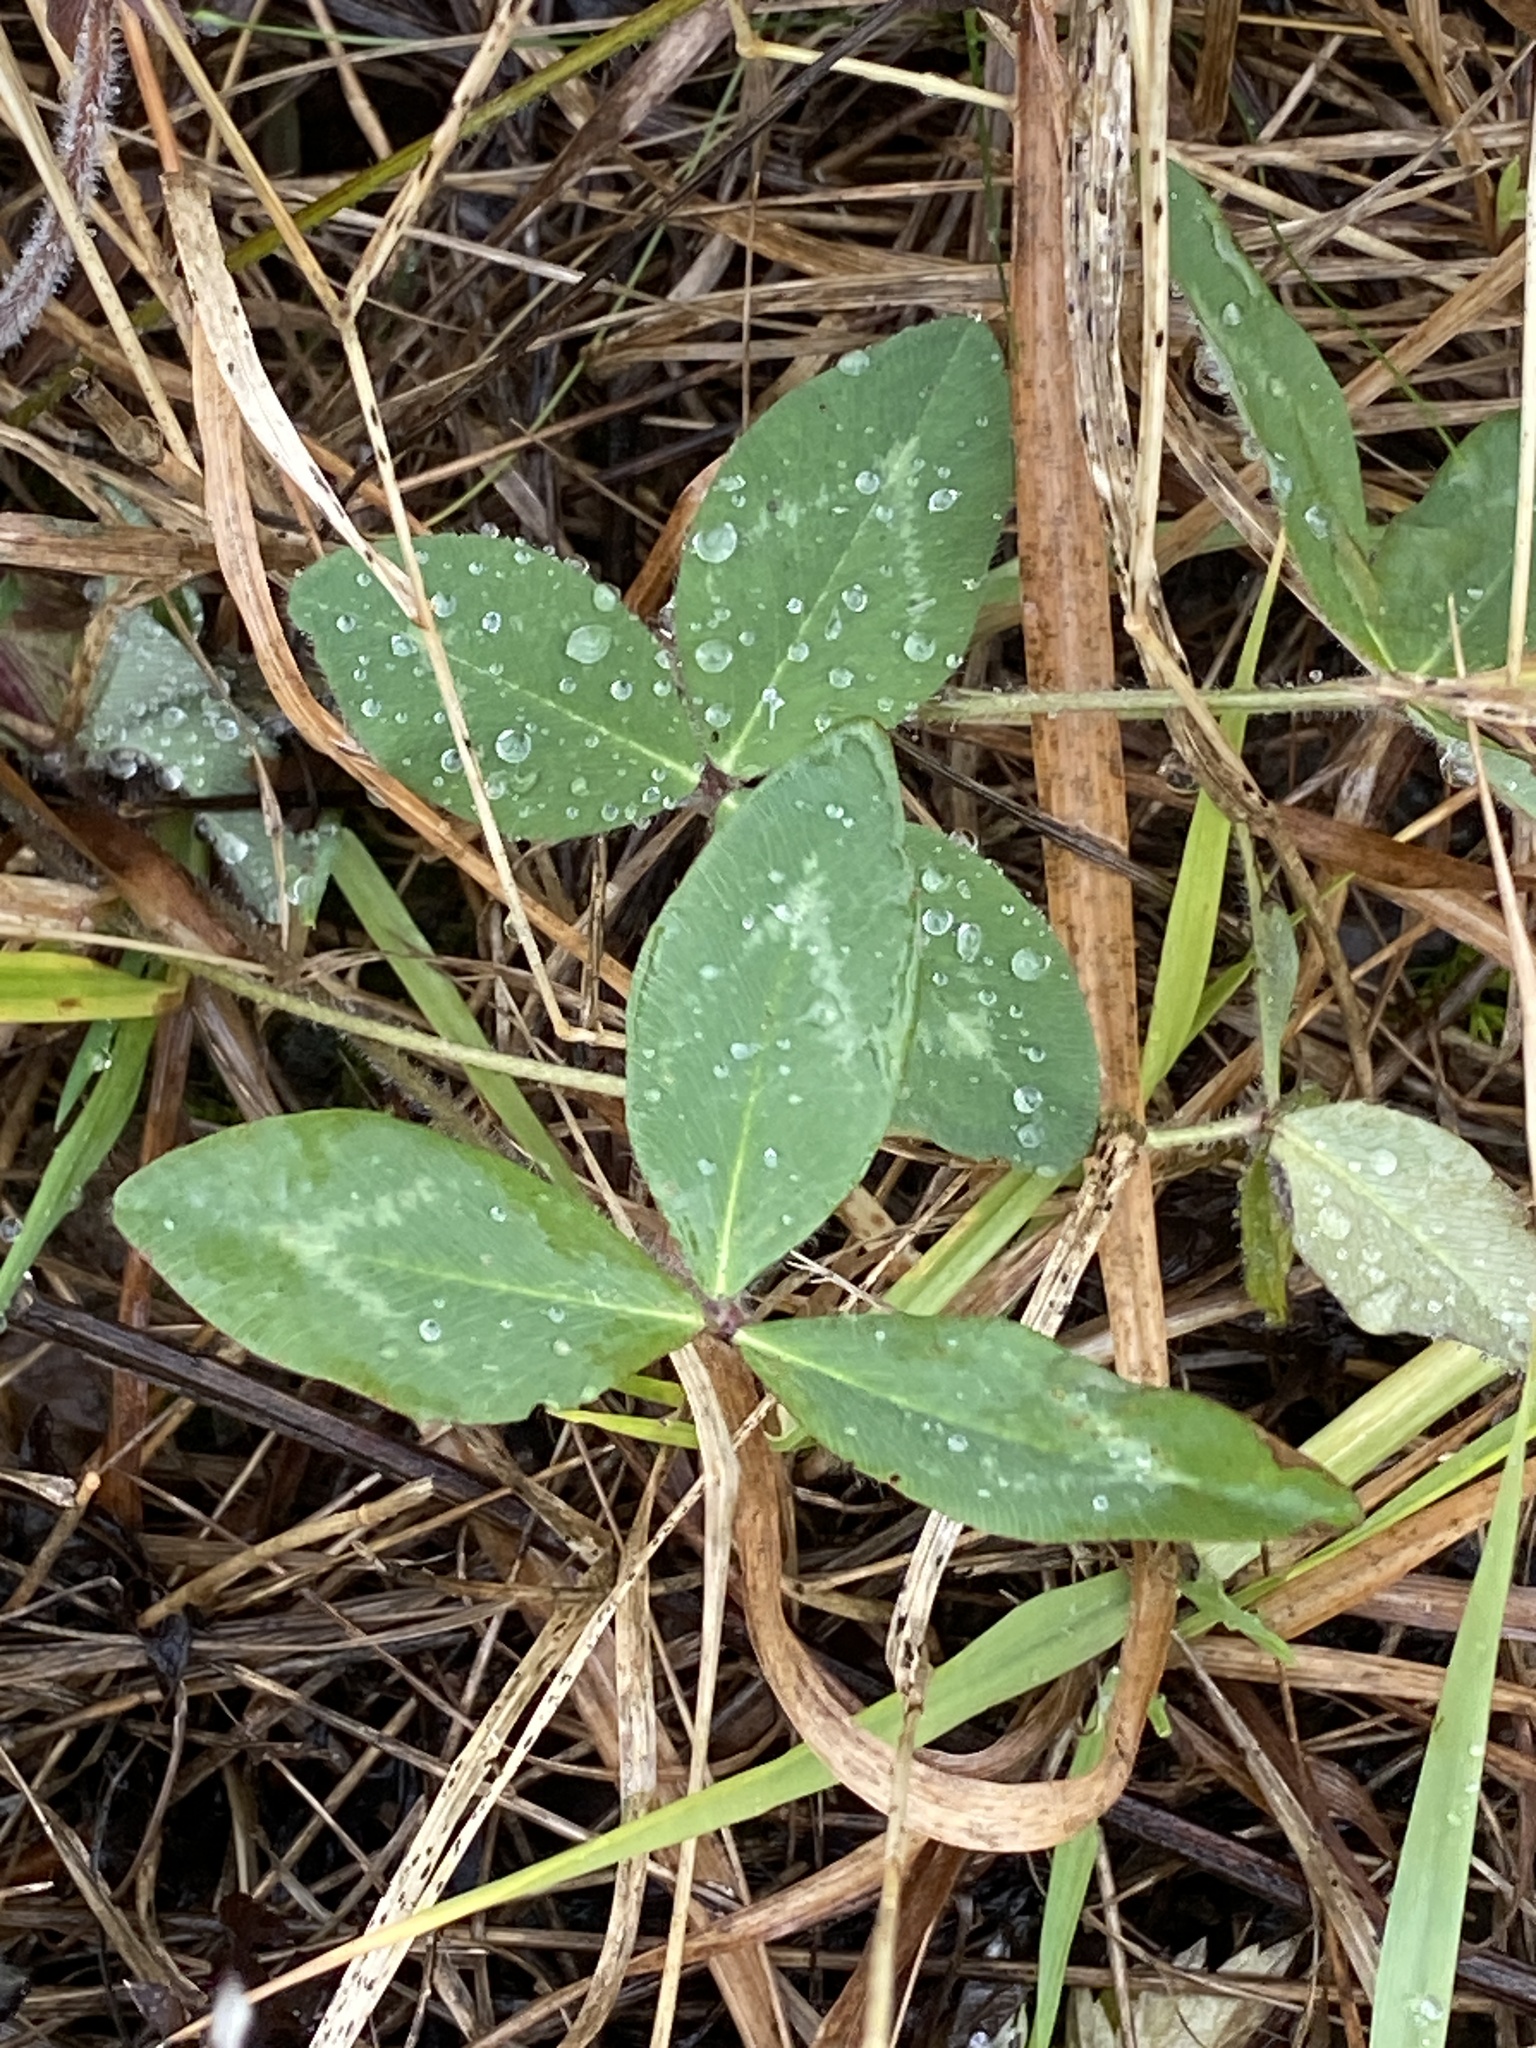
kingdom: Plantae
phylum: Tracheophyta
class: Magnoliopsida
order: Fabales
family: Fabaceae
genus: Trifolium
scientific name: Trifolium pratense
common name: Red clover
